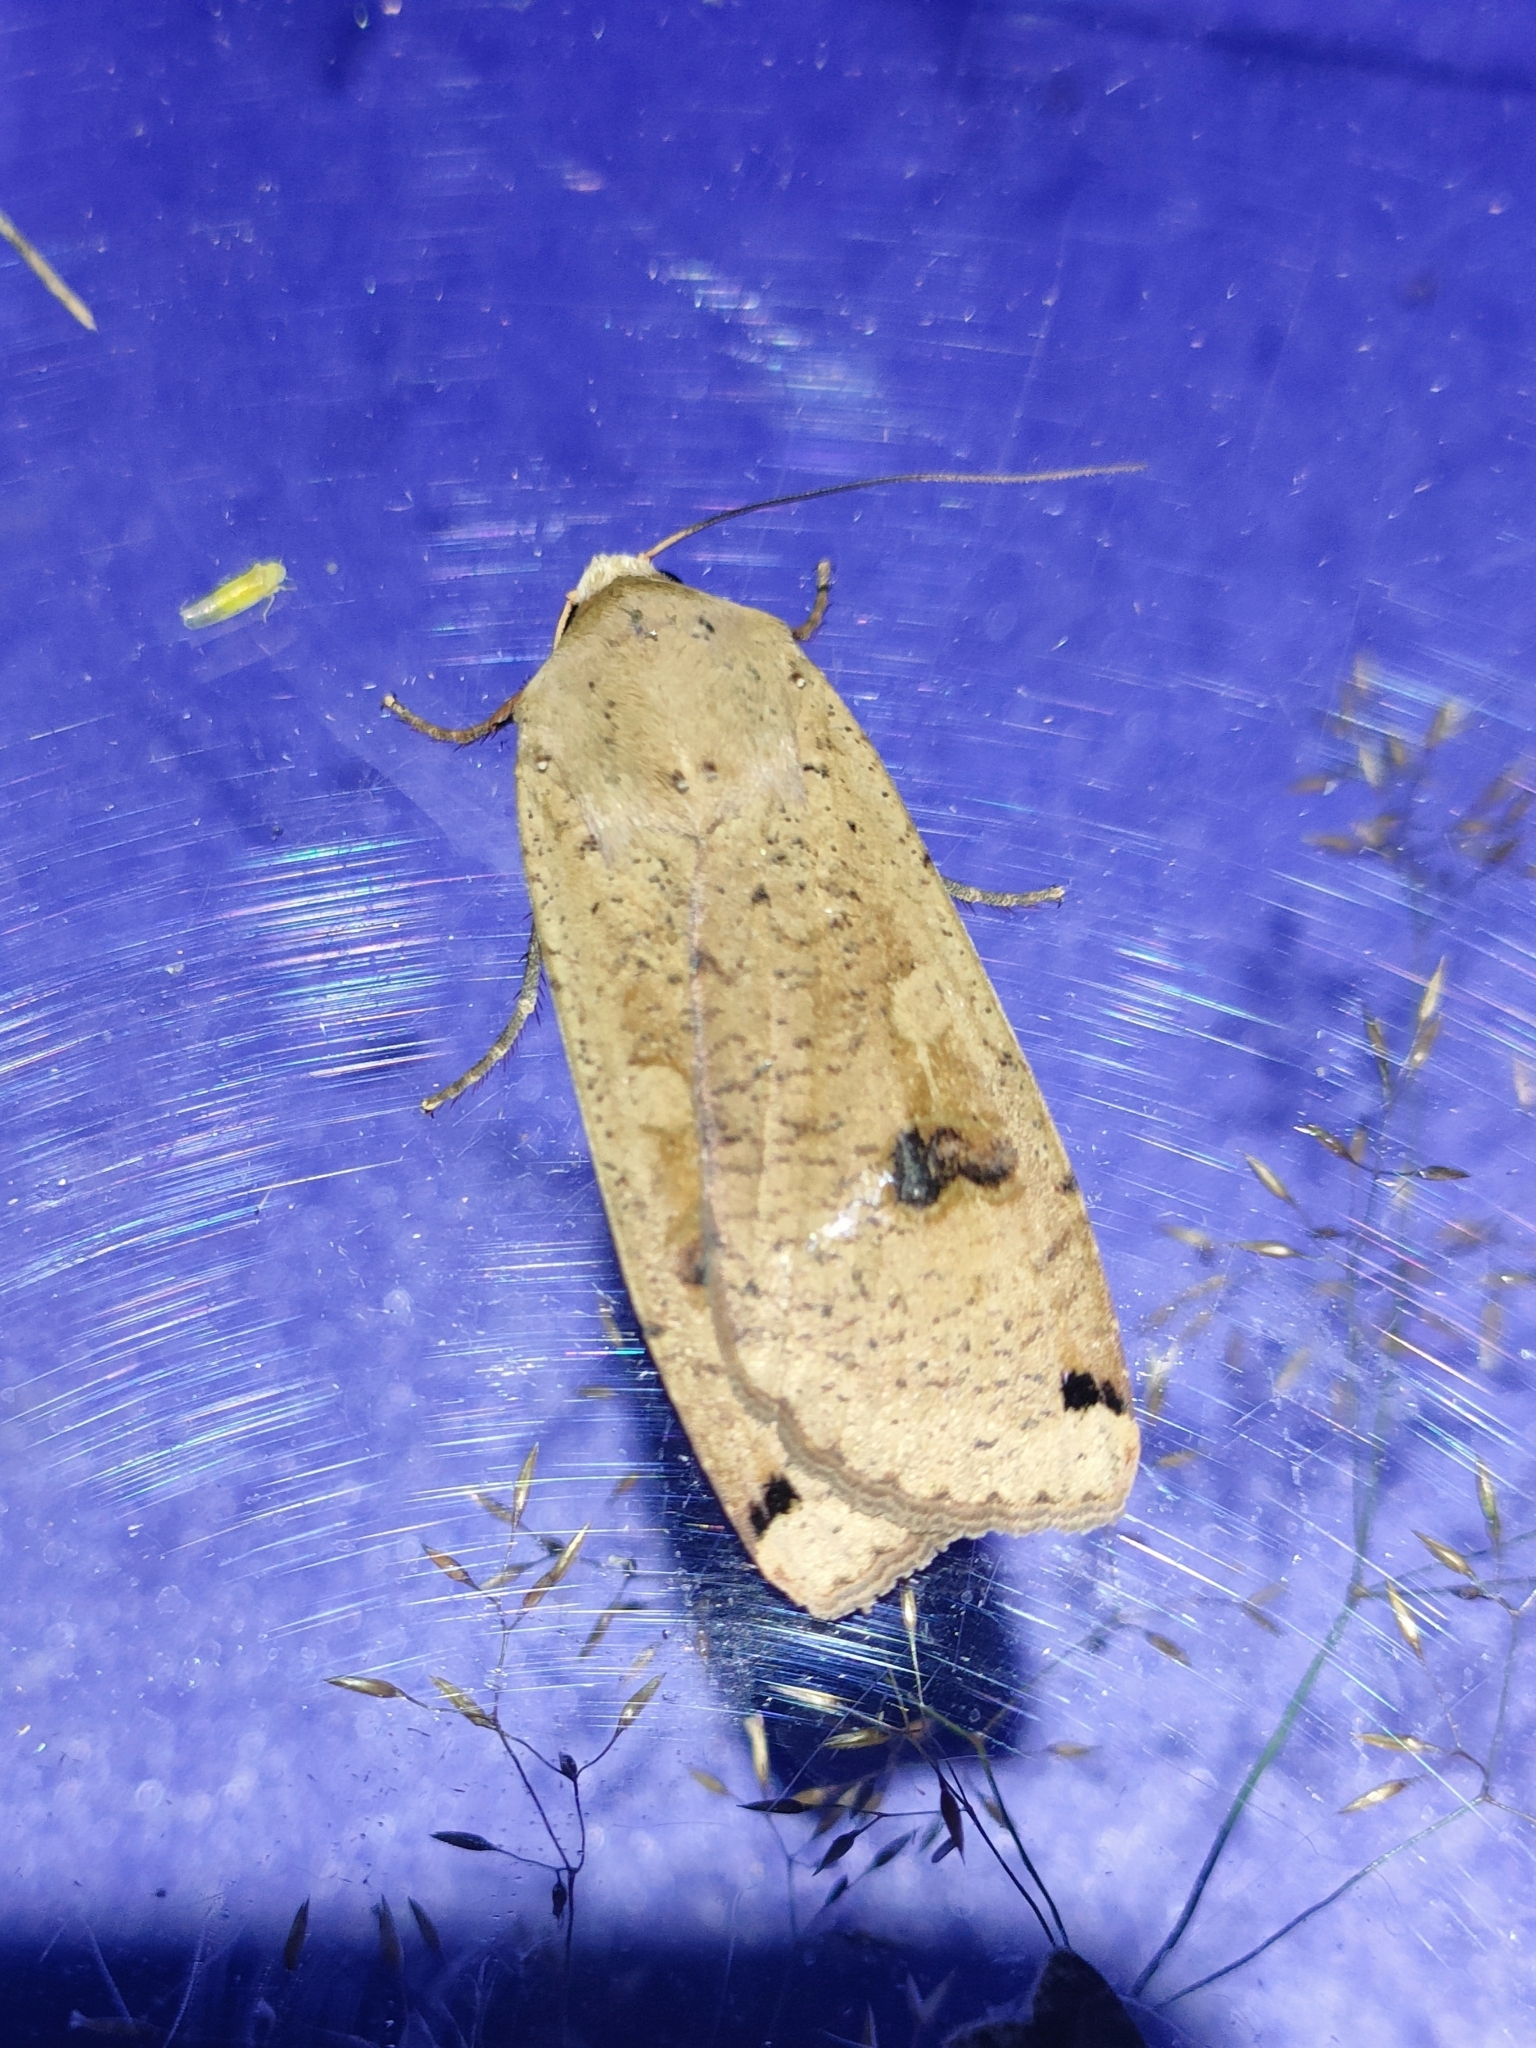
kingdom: Animalia
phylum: Arthropoda
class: Insecta
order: Lepidoptera
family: Noctuidae
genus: Noctua
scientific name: Noctua pronuba
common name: Large yellow underwing
